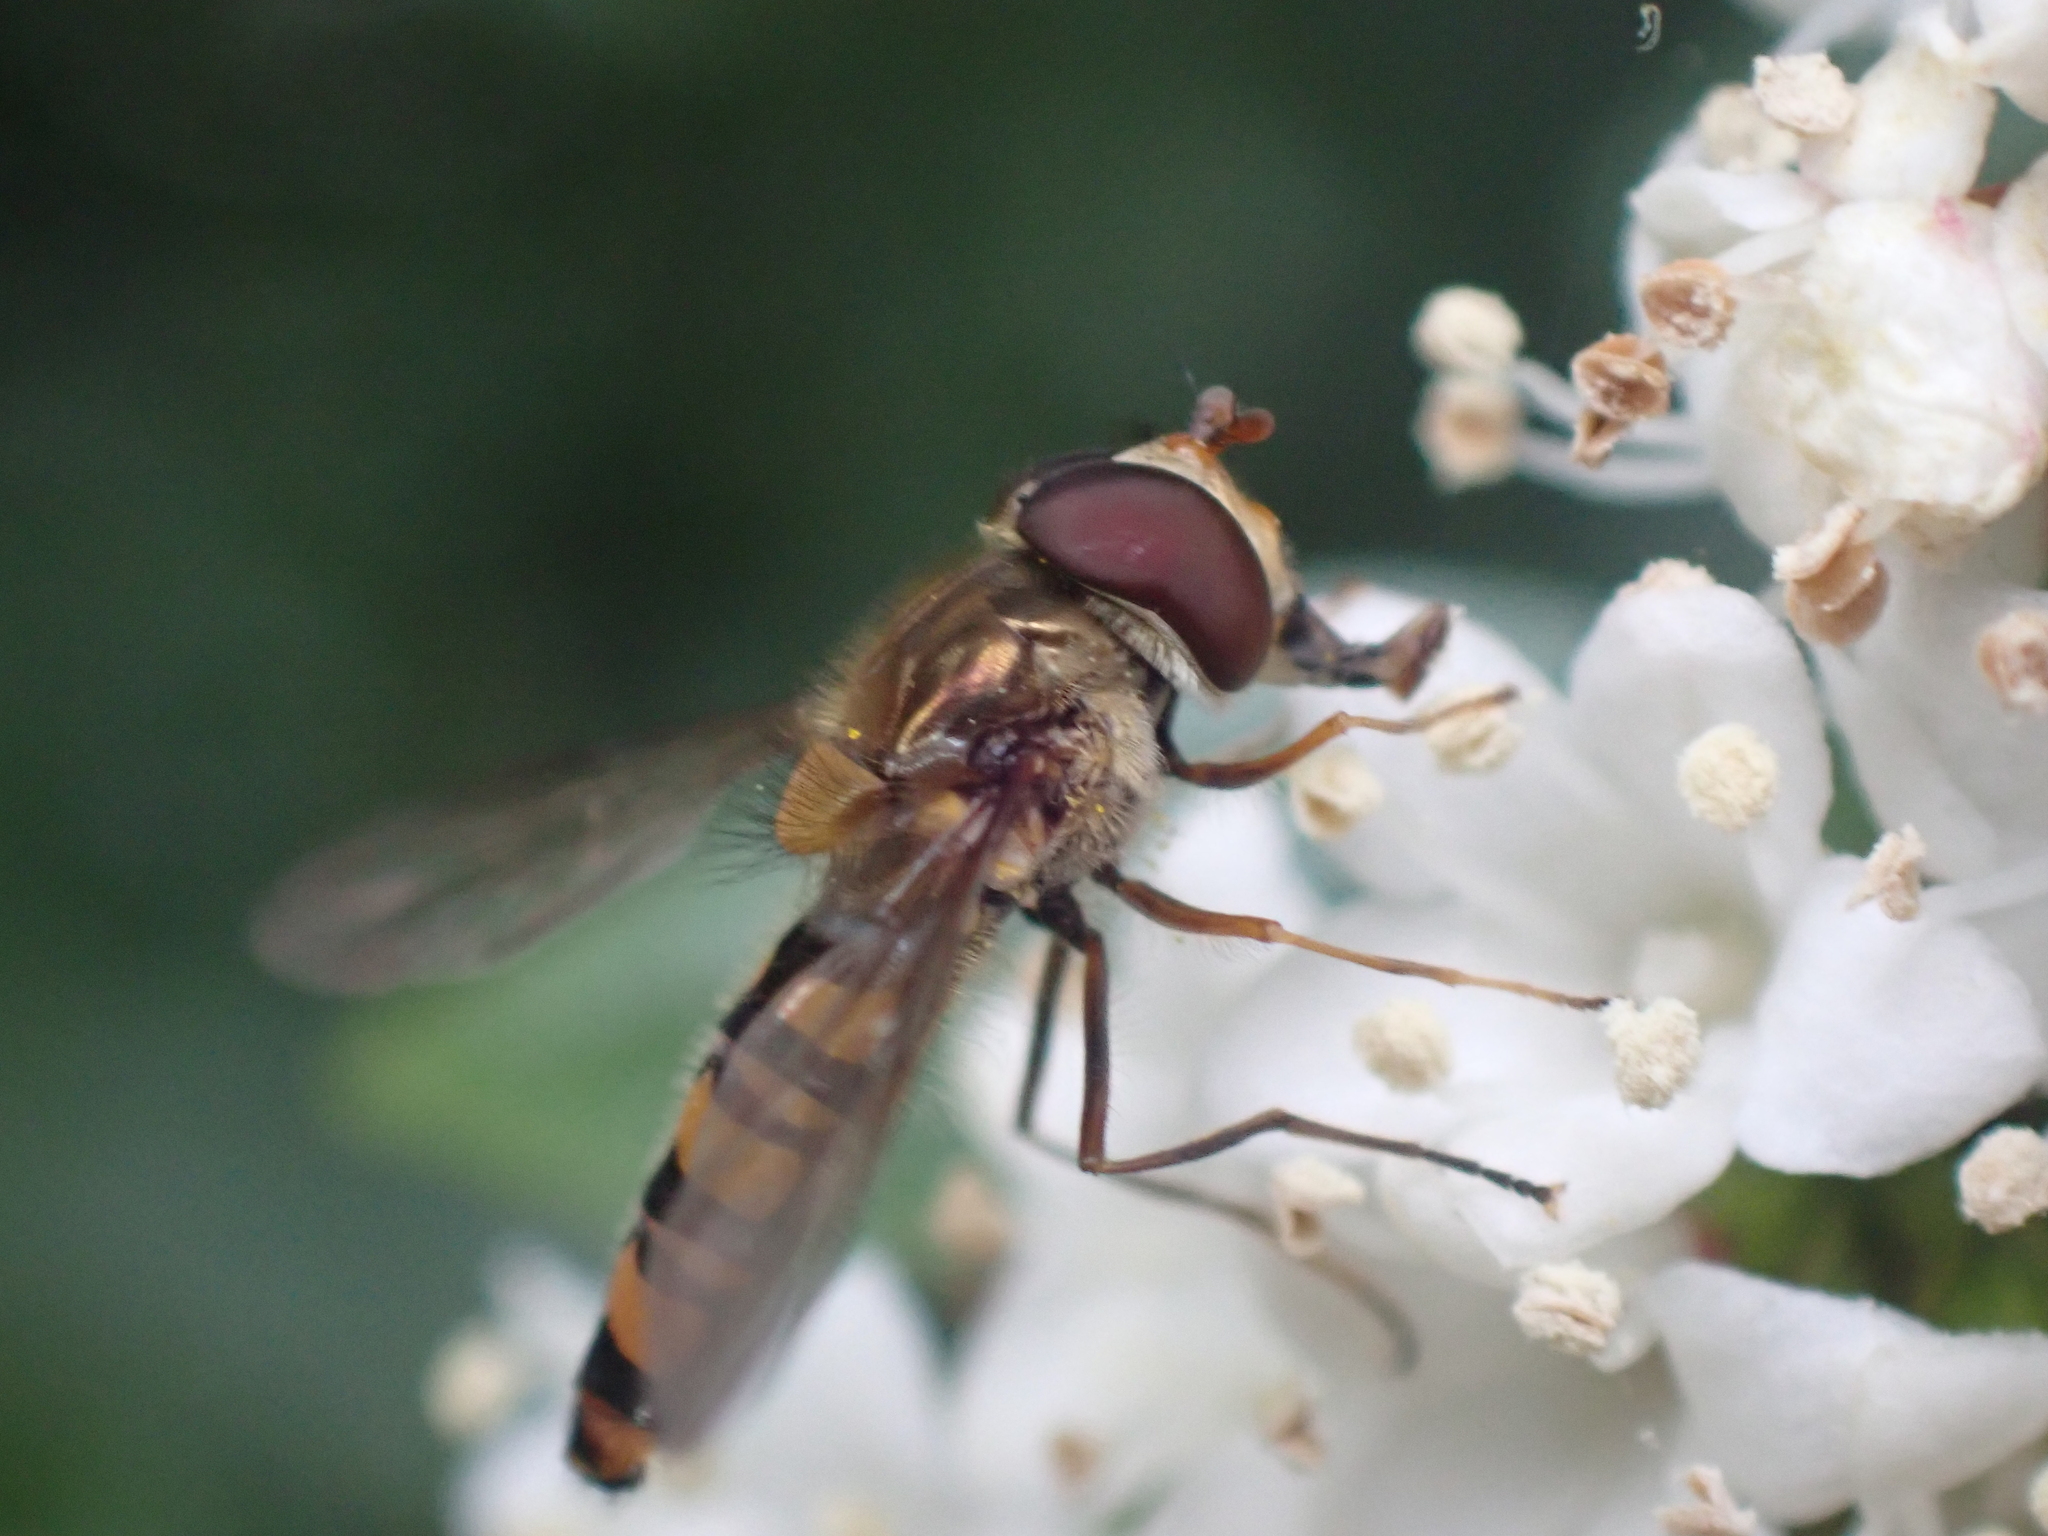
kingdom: Animalia
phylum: Arthropoda
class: Insecta
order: Diptera
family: Syrphidae
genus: Episyrphus
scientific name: Episyrphus balteatus
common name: Marmalade hoverfly
